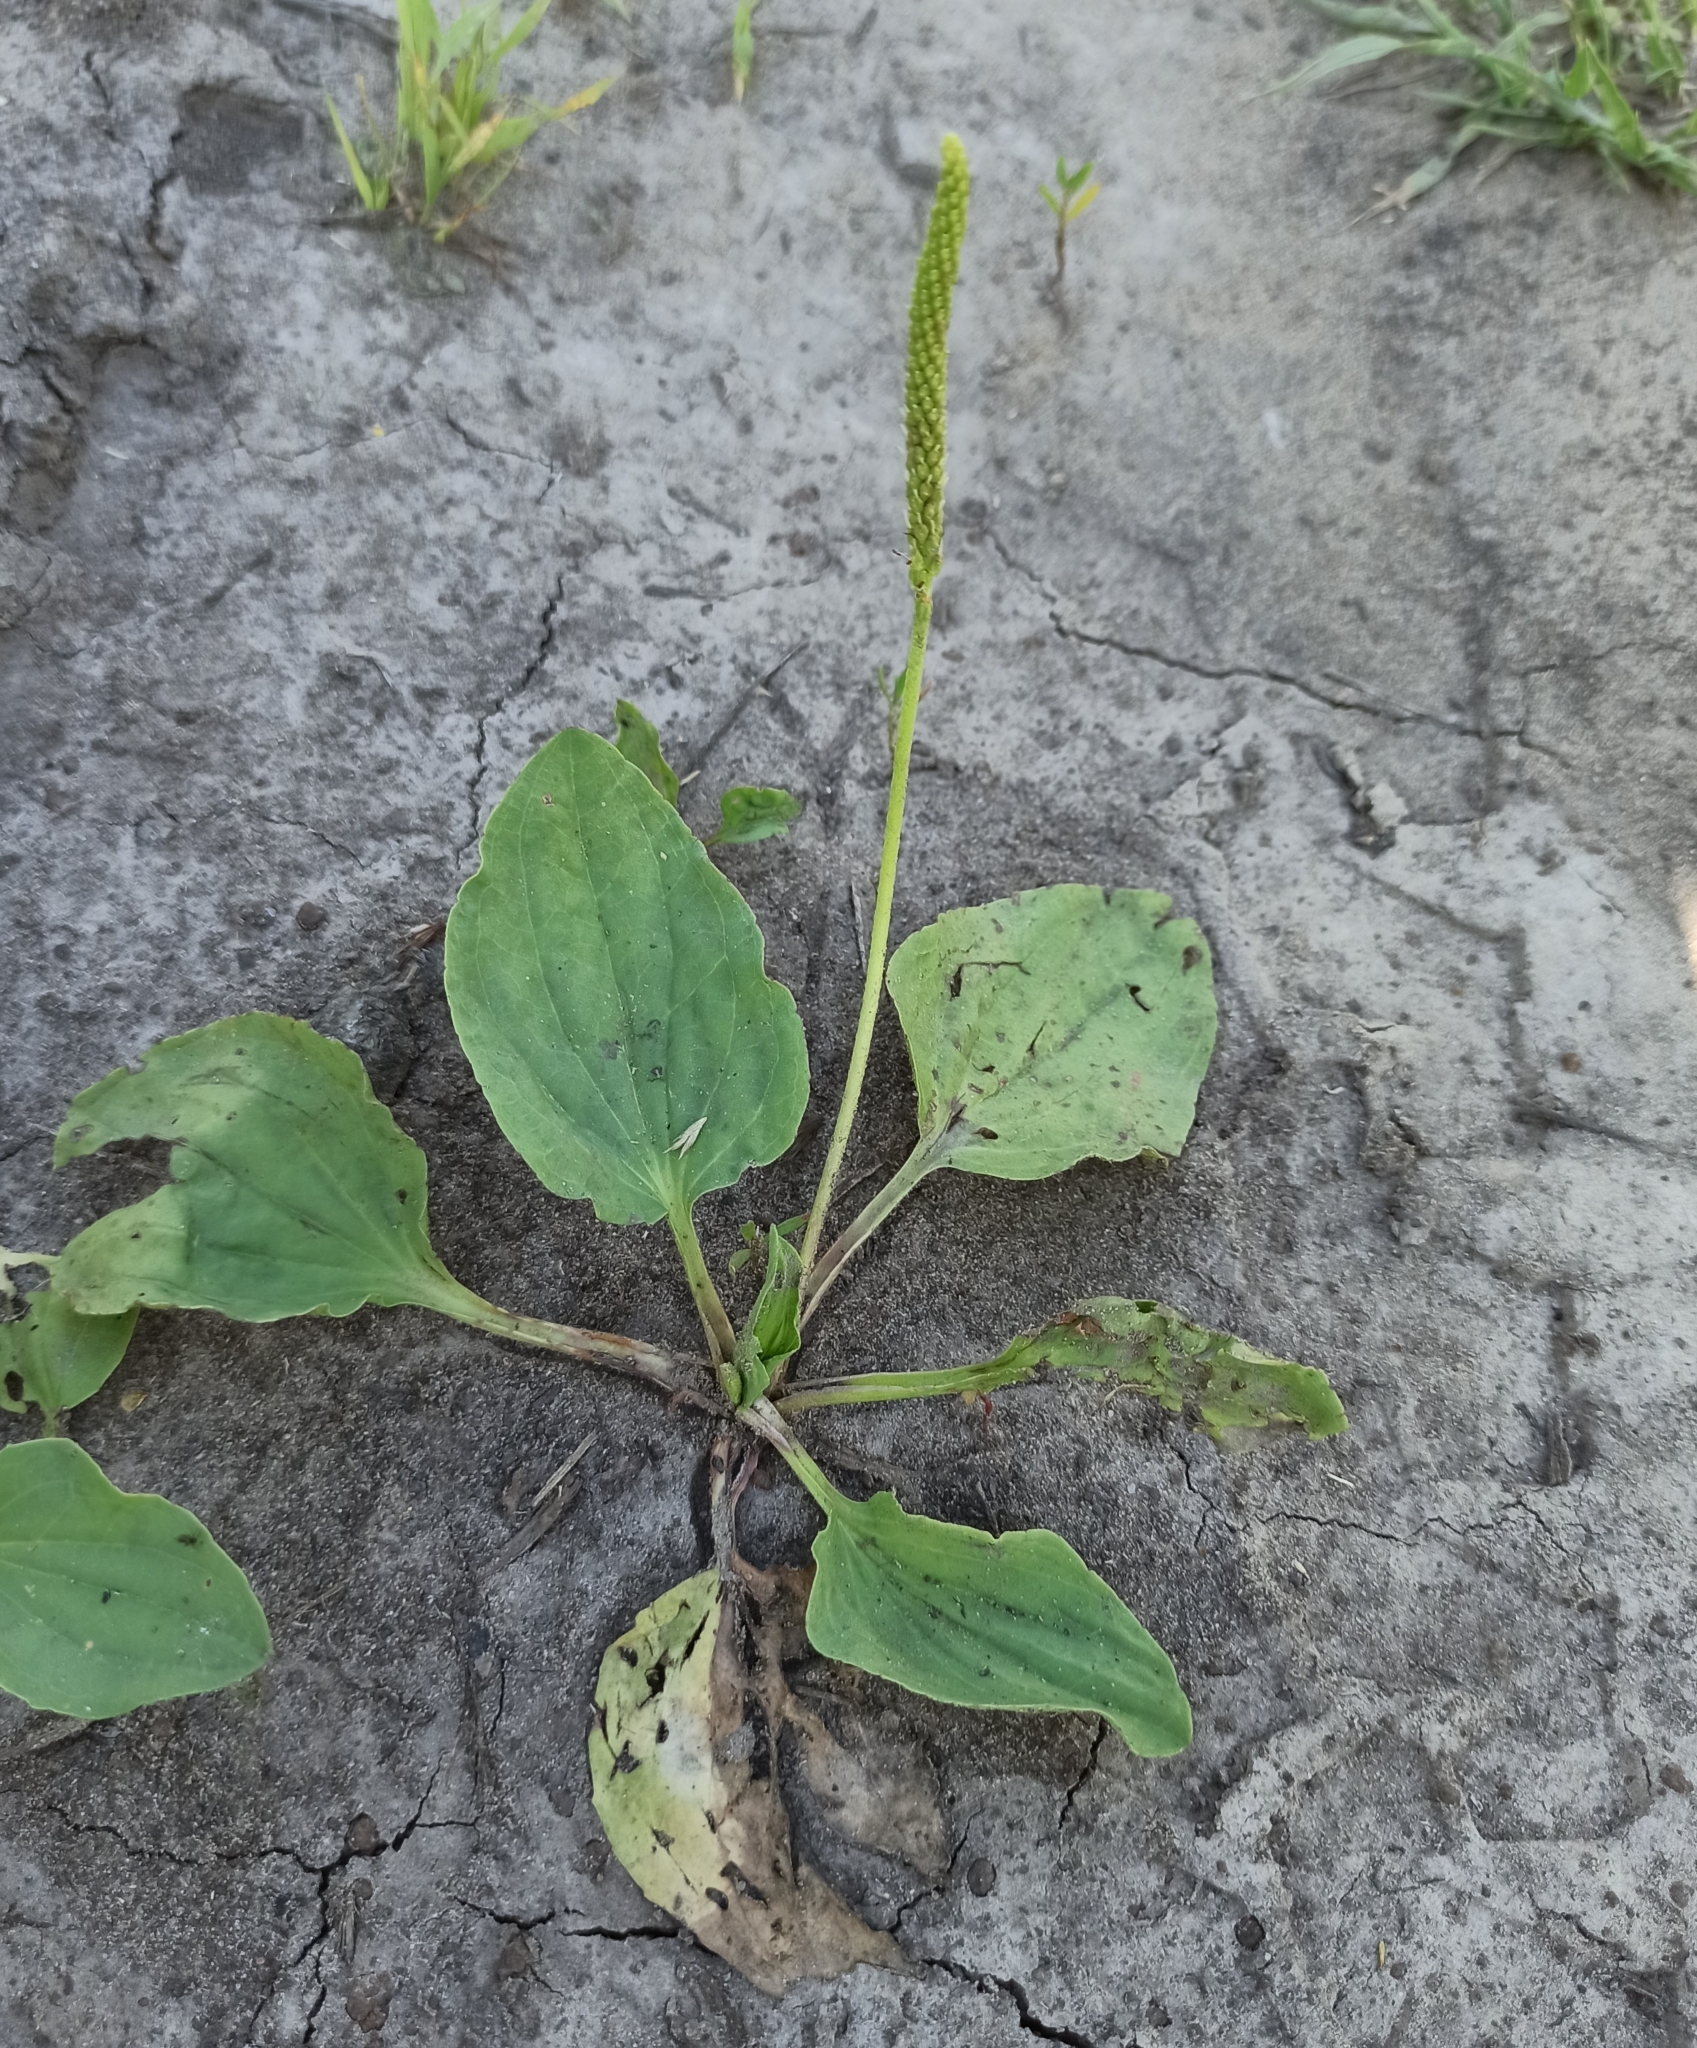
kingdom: Plantae
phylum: Tracheophyta
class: Magnoliopsida
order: Lamiales
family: Plantaginaceae
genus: Plantago
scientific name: Plantago major
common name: Common plantain
